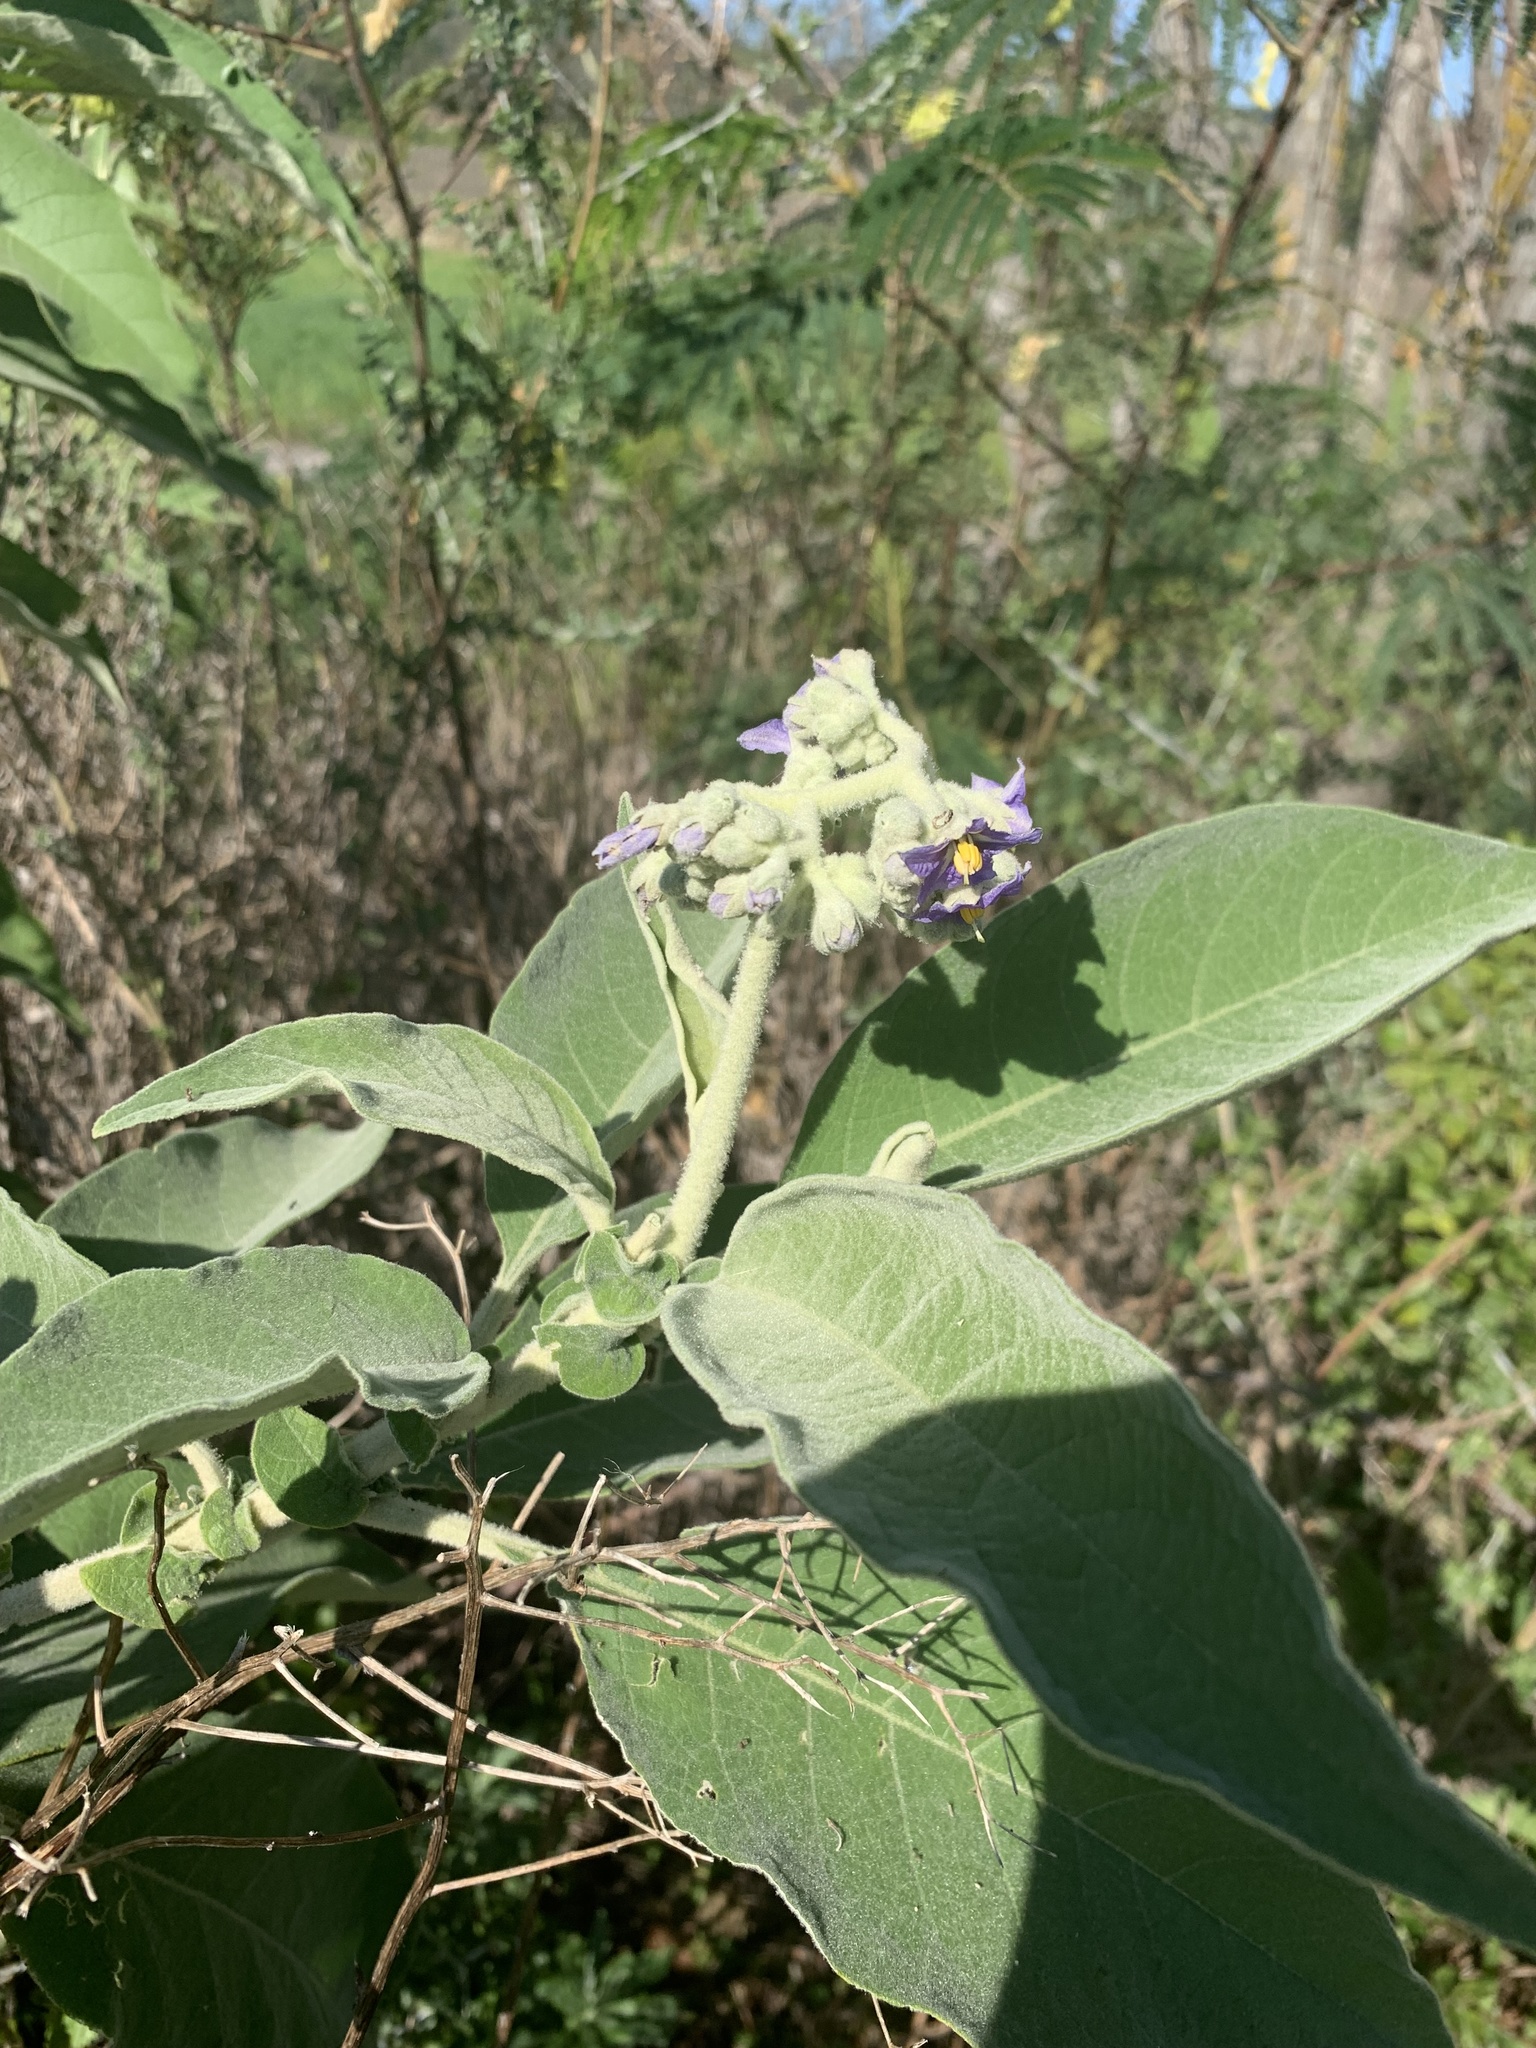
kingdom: Plantae
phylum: Tracheophyta
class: Magnoliopsida
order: Solanales
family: Solanaceae
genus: Solanum
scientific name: Solanum mauritianum
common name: Earleaf nightshade
